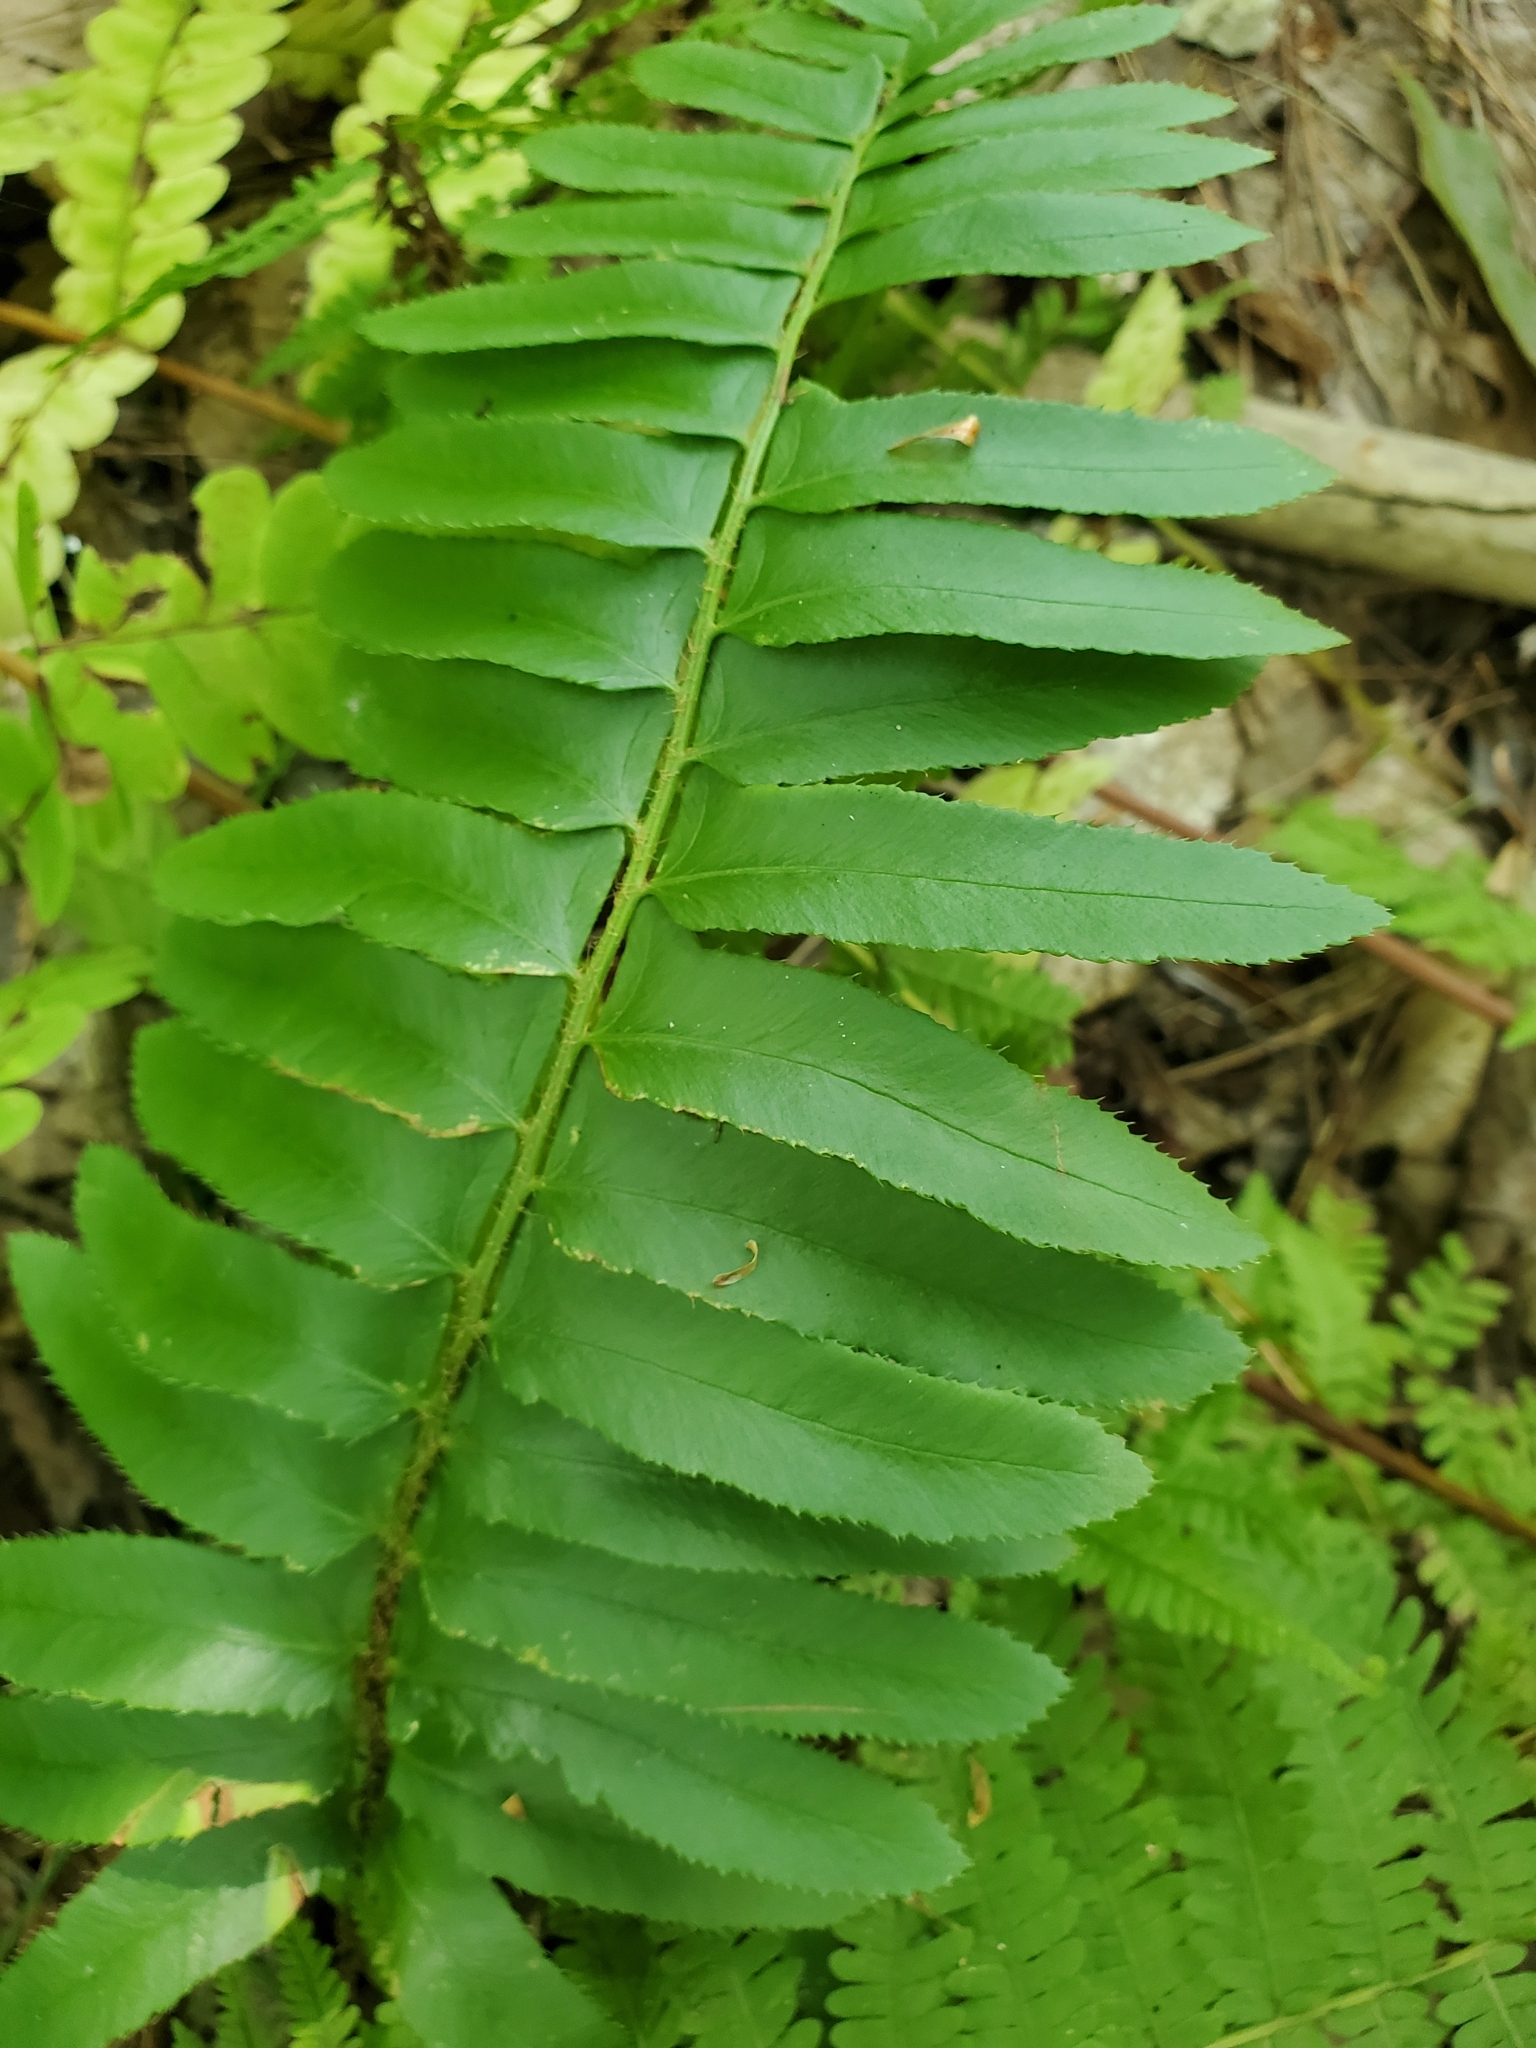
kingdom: Plantae
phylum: Tracheophyta
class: Polypodiopsida
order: Polypodiales
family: Dryopteridaceae
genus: Polystichum
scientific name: Polystichum acrostichoides
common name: Christmas fern
